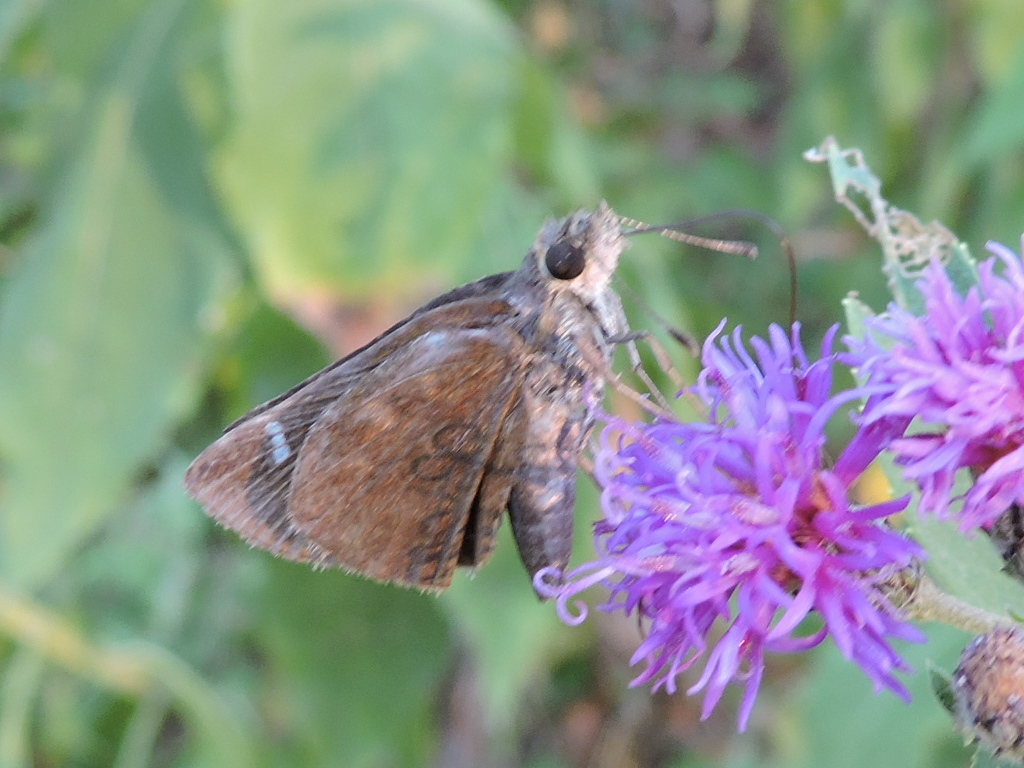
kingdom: Animalia
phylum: Arthropoda
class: Insecta
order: Lepidoptera
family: Hesperiidae
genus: Lerema
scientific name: Lerema accius
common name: Clouded skipper
